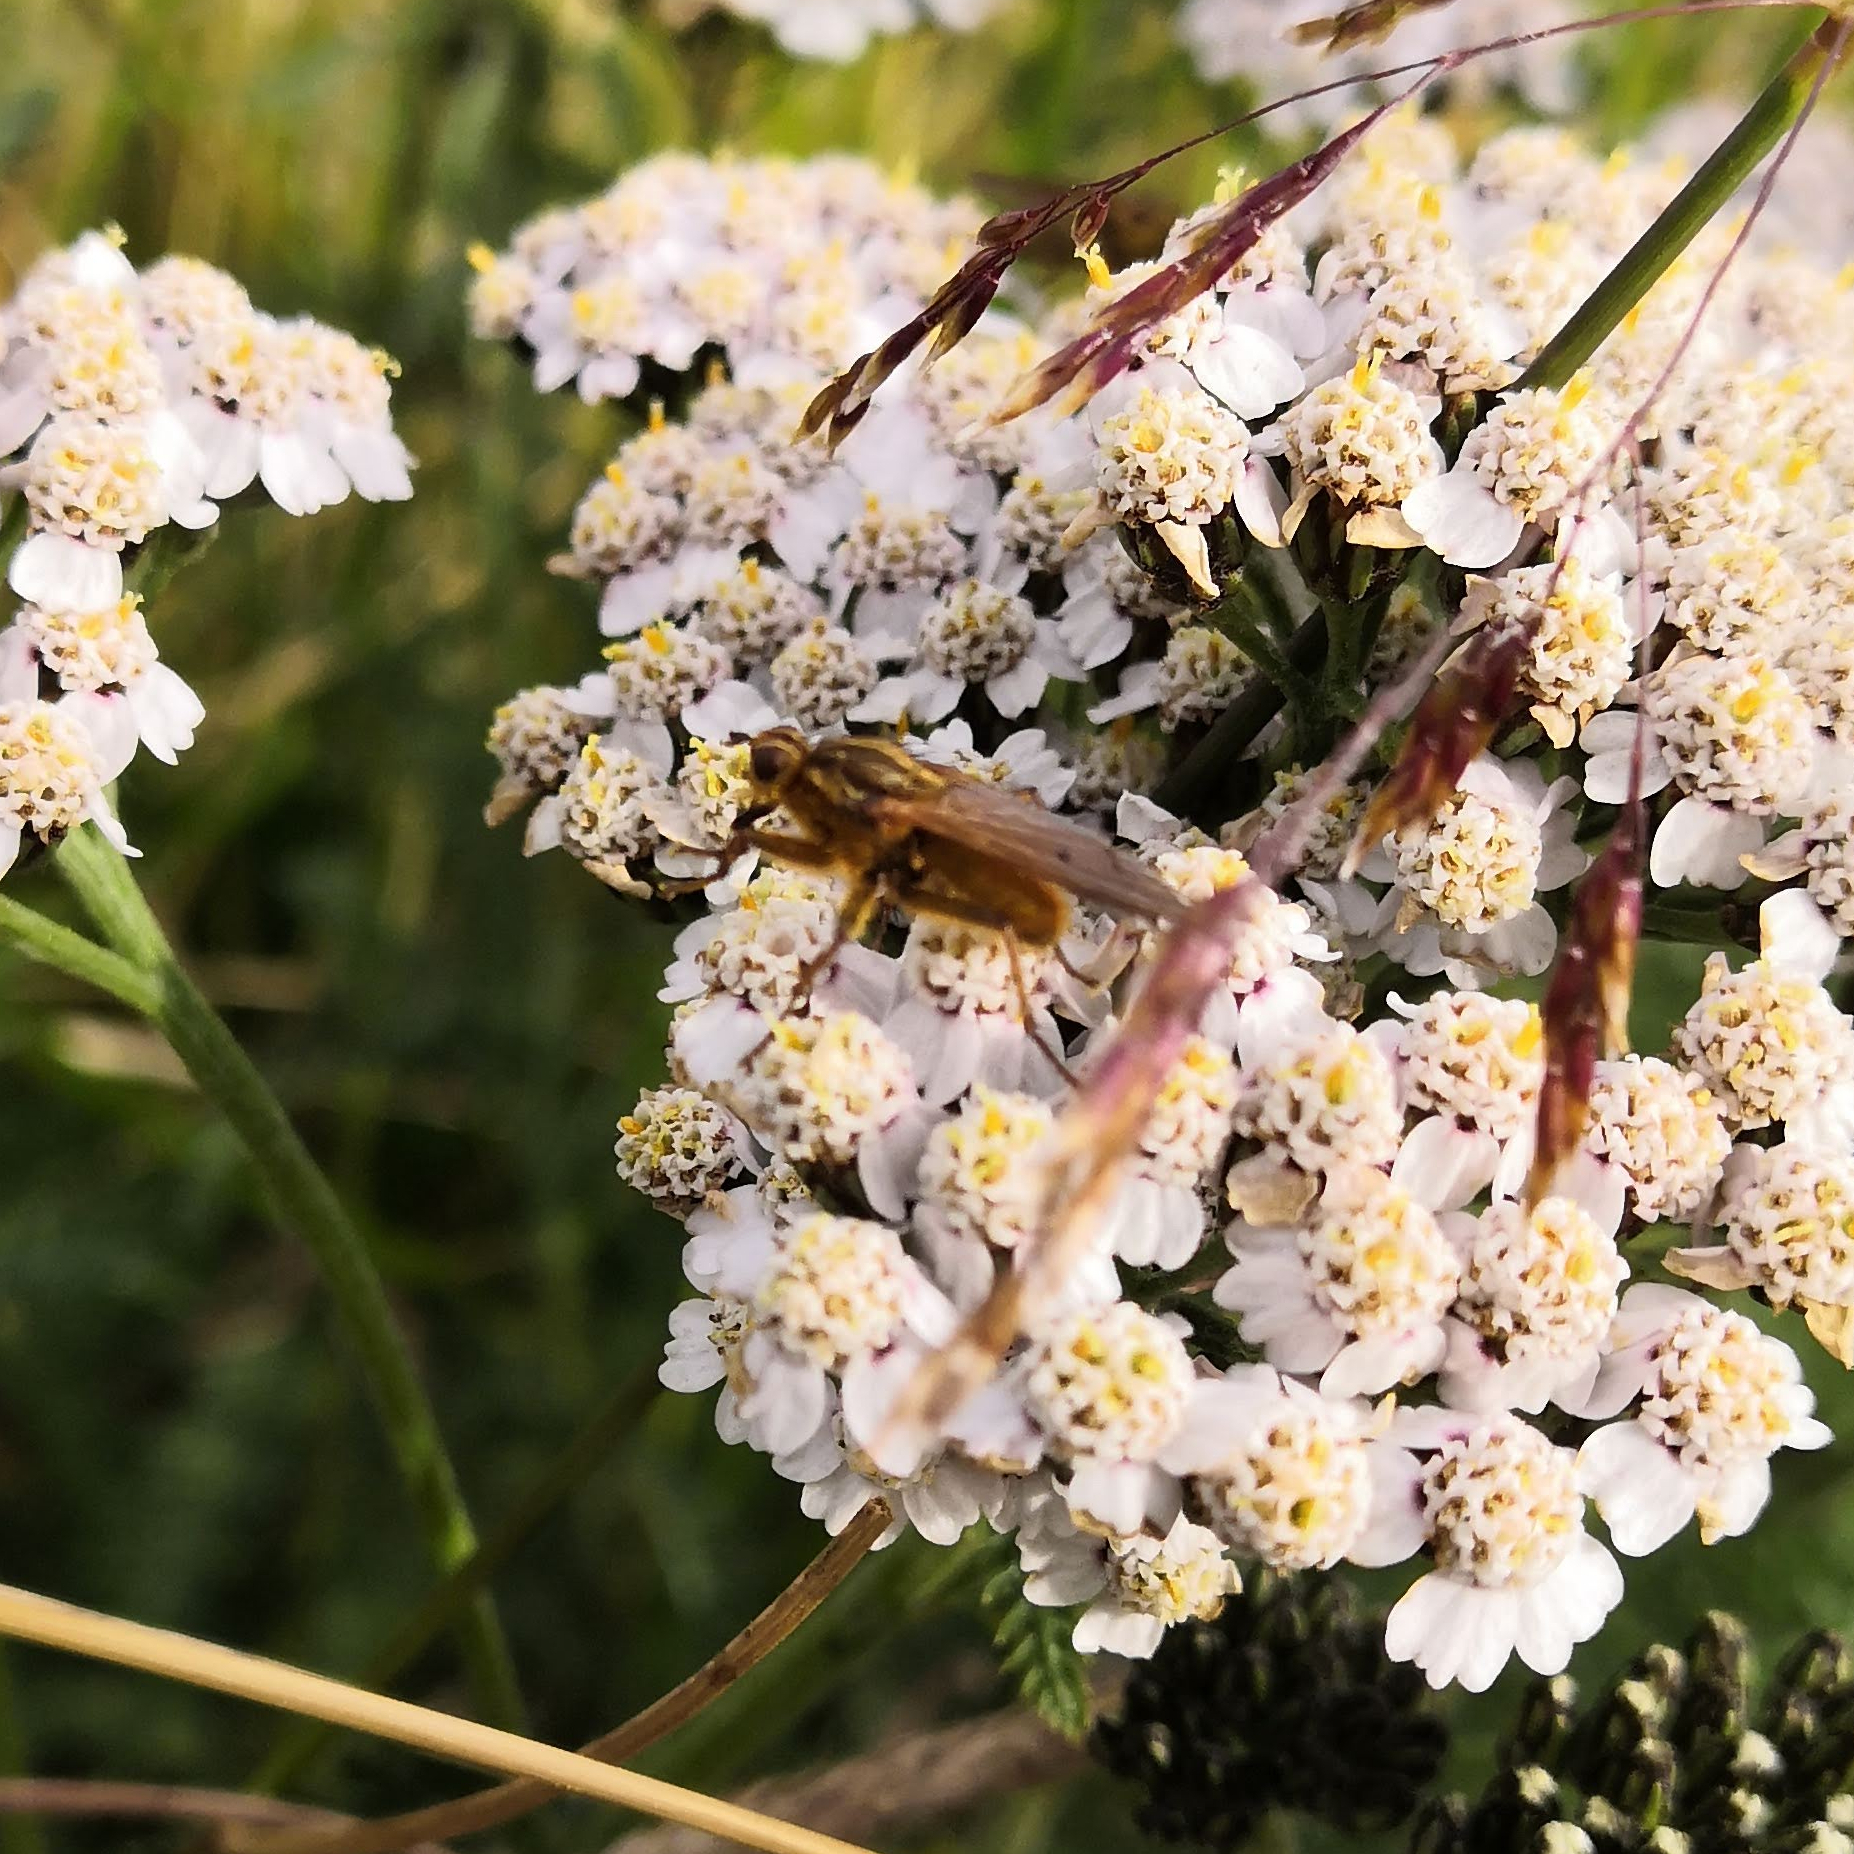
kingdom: Animalia
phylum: Arthropoda
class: Insecta
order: Diptera
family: Scathophagidae
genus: Scathophaga
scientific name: Scathophaga stercoraria
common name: Yellow dung fly
